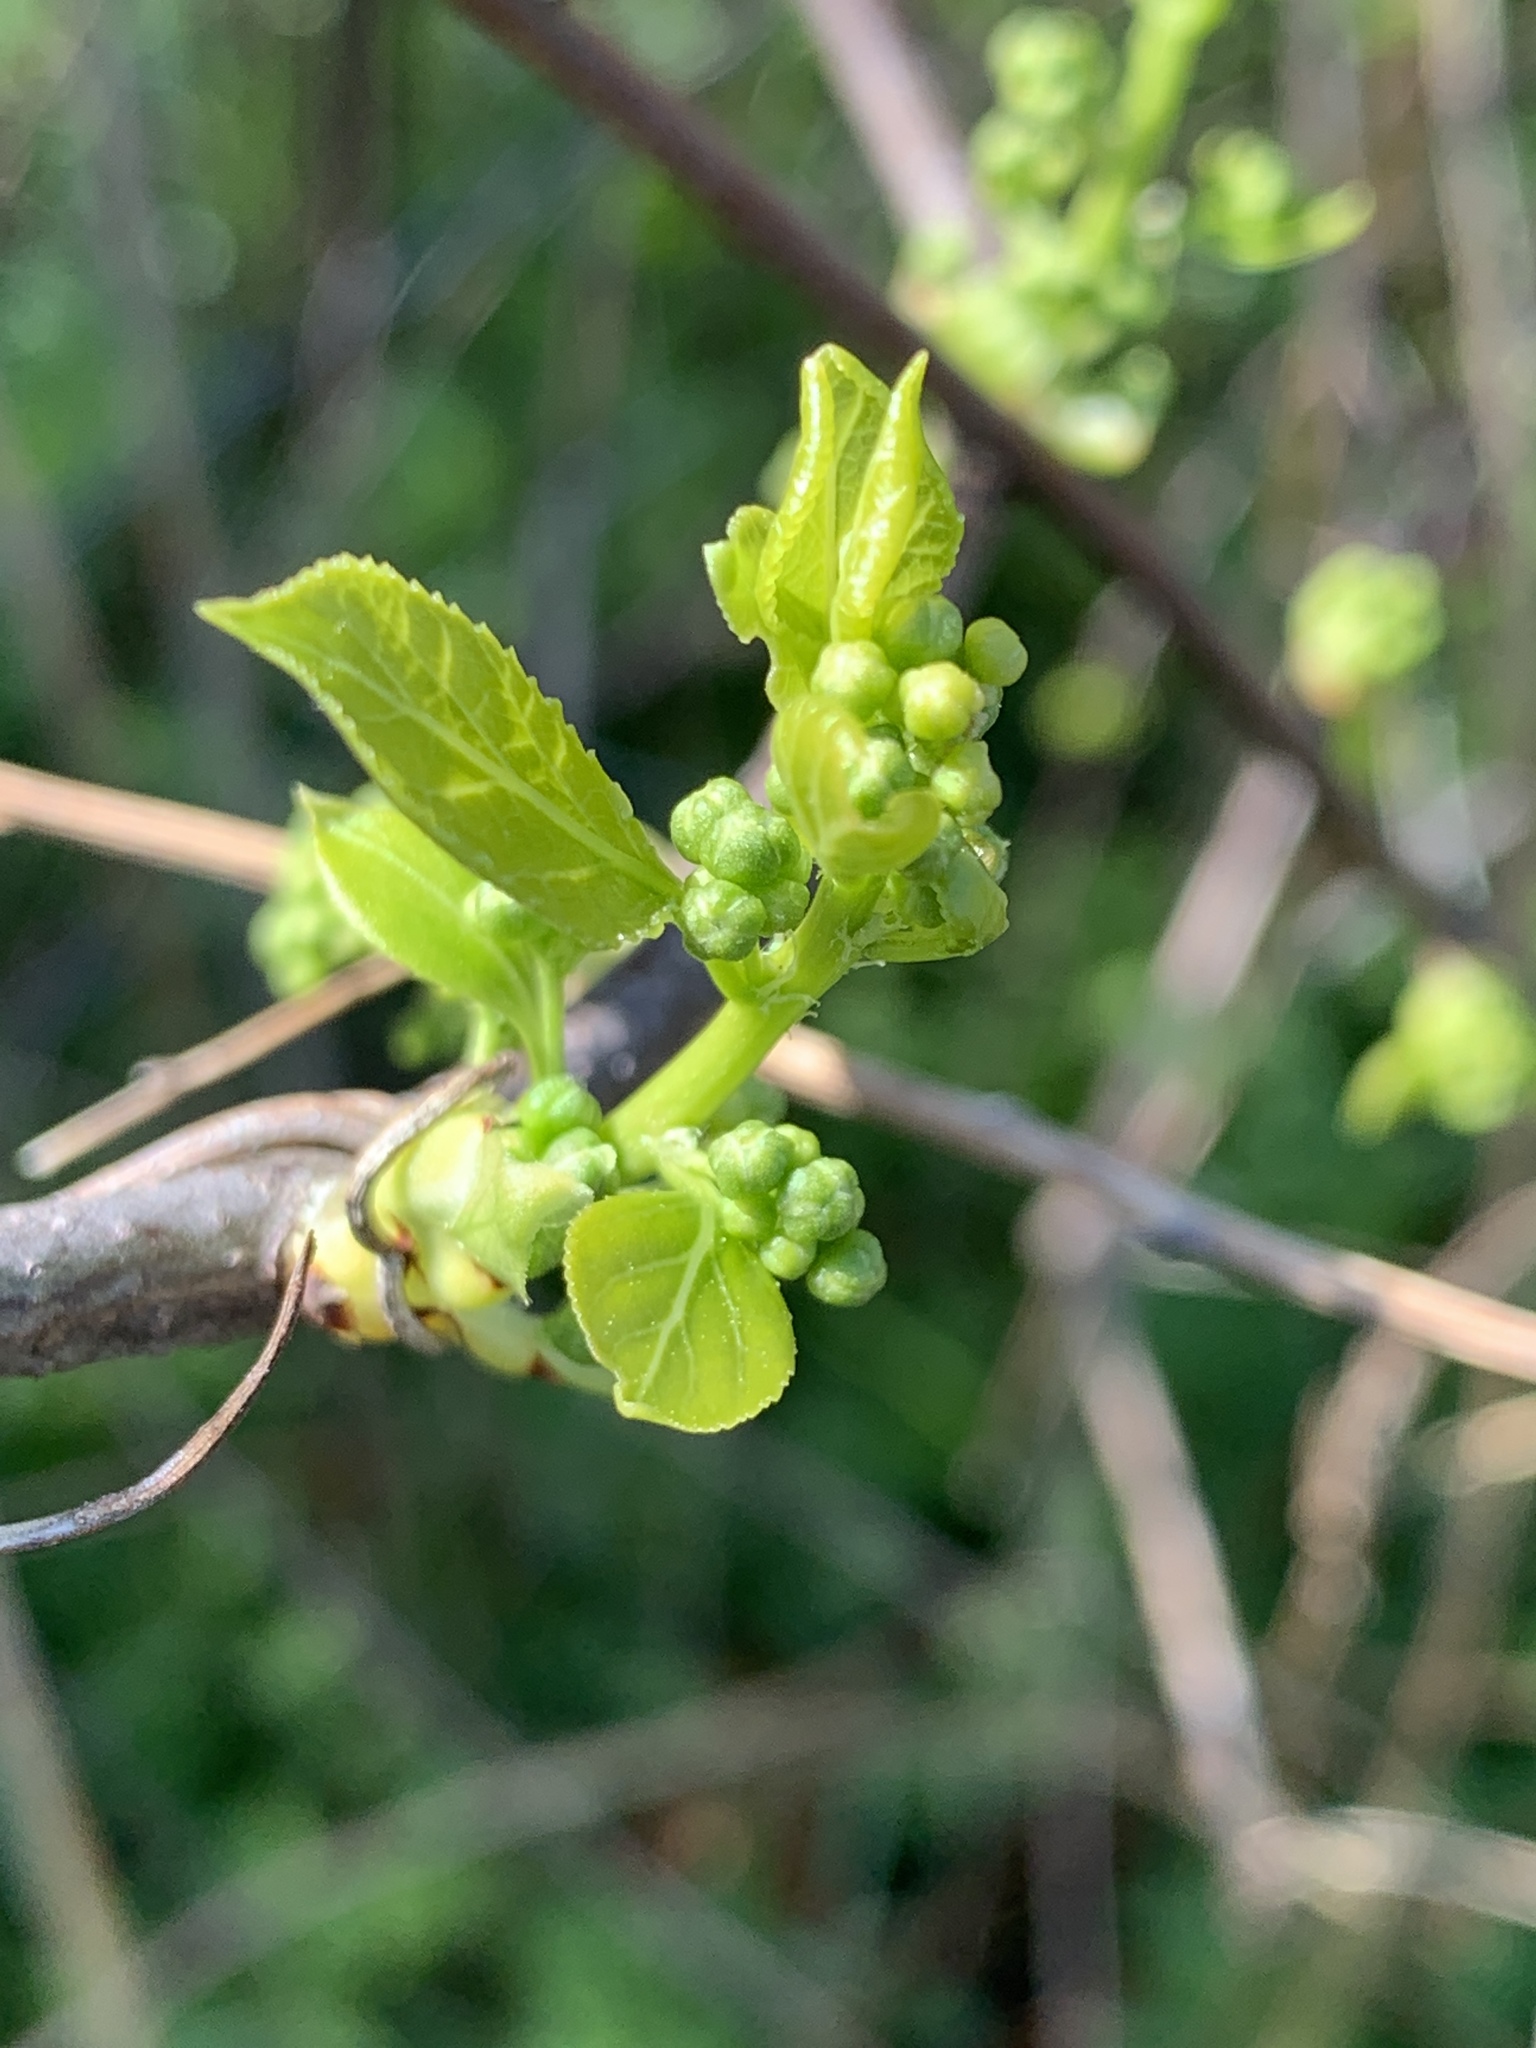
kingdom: Plantae
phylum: Tracheophyta
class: Magnoliopsida
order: Celastrales
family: Celastraceae
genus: Celastrus
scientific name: Celastrus orbiculatus
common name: Oriental bittersweet
